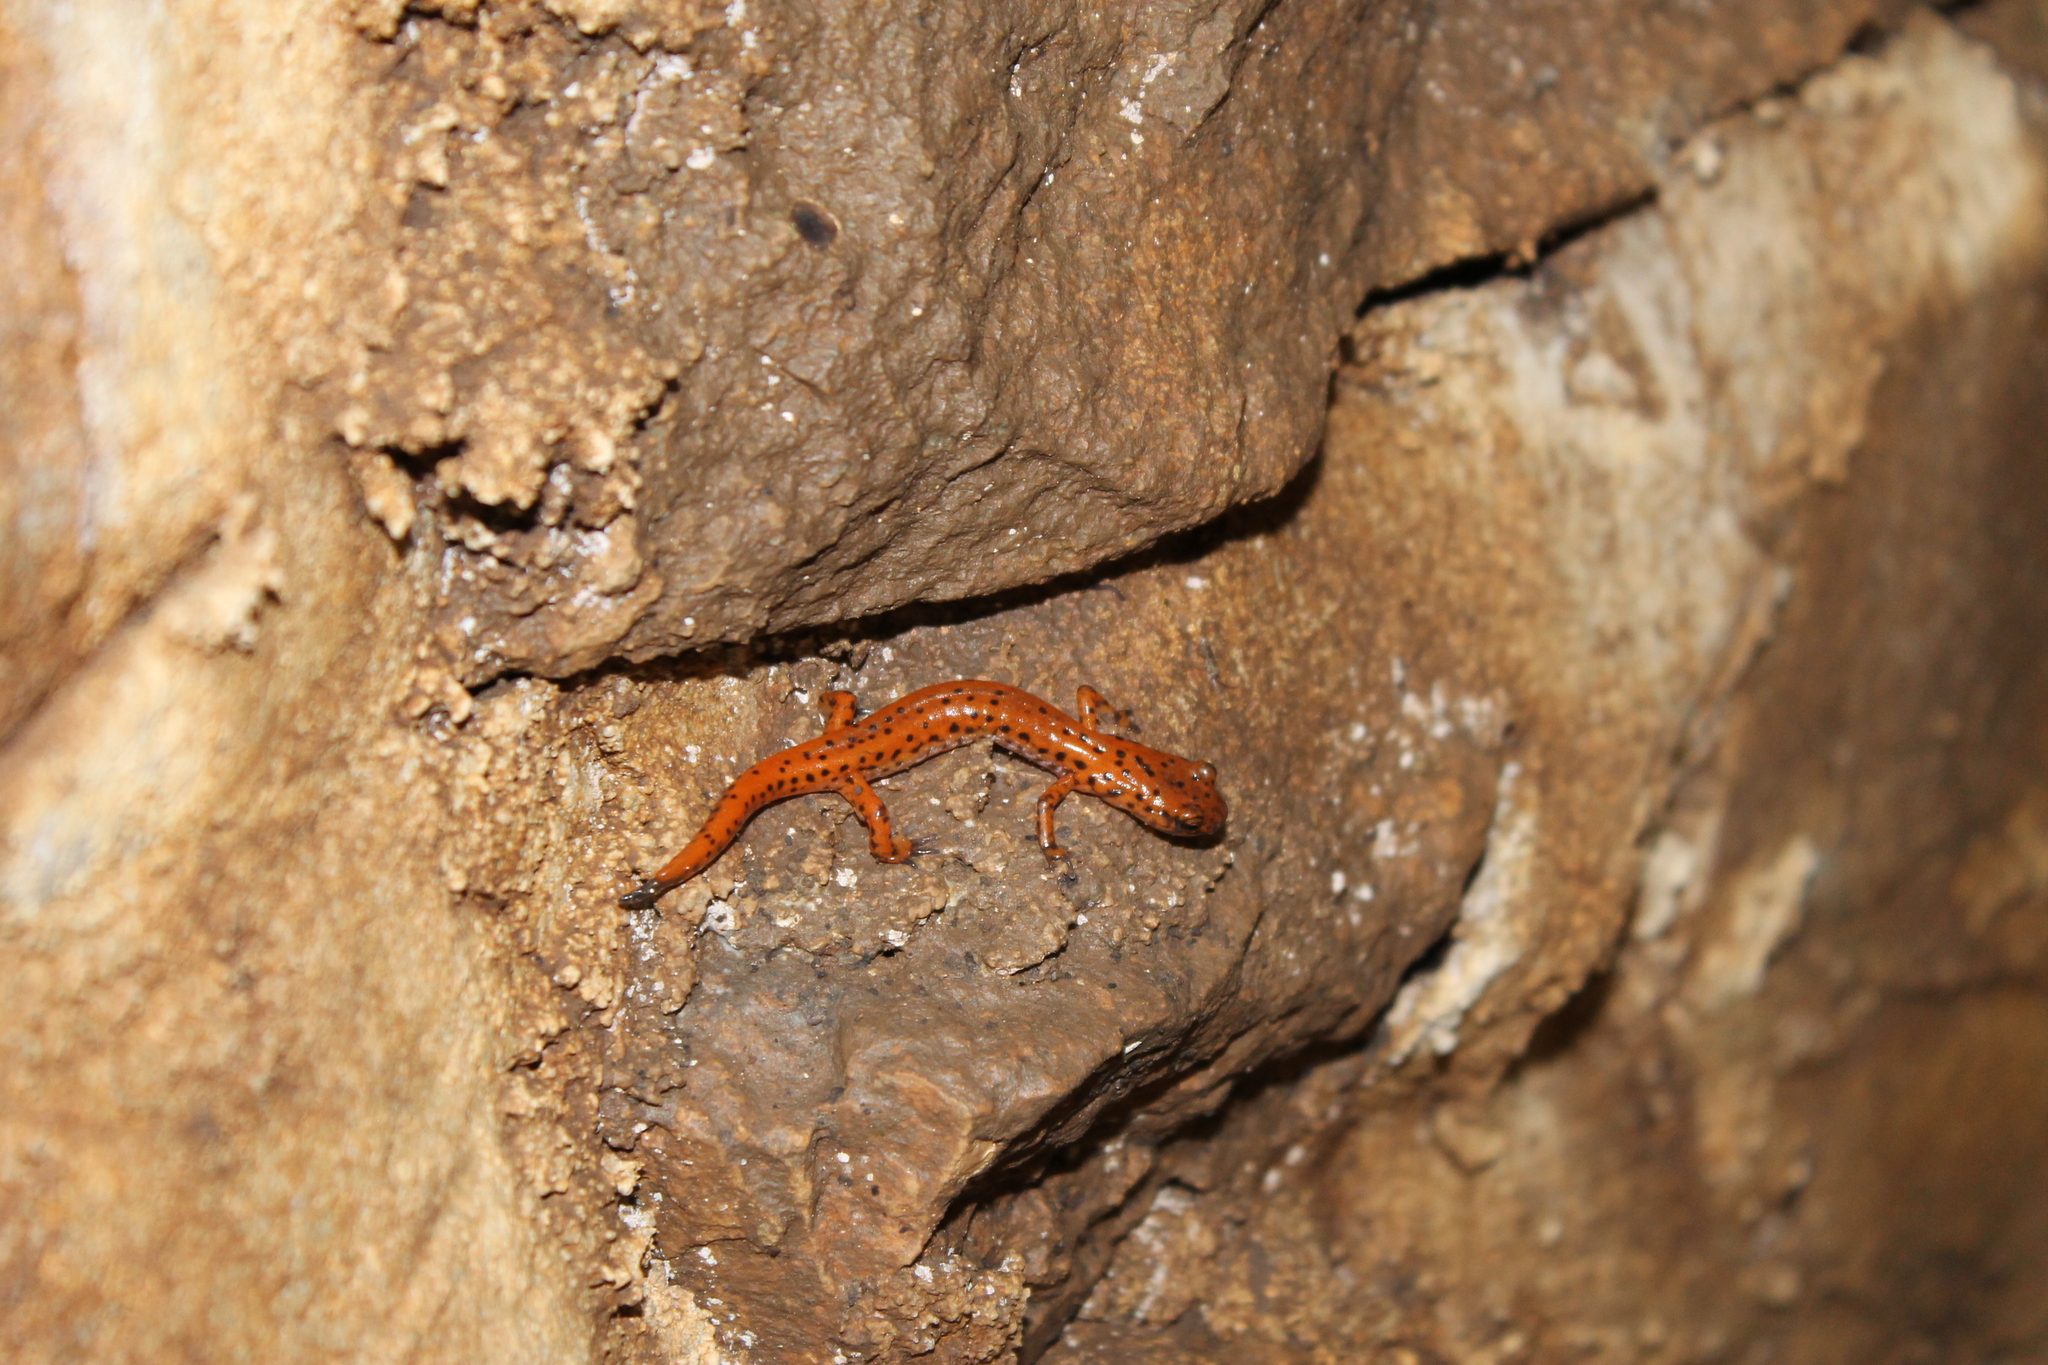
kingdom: Animalia
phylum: Chordata
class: Amphibia
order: Caudata
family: Plethodontidae
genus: Eurycea
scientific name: Eurycea lucifuga
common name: Cave salamander
